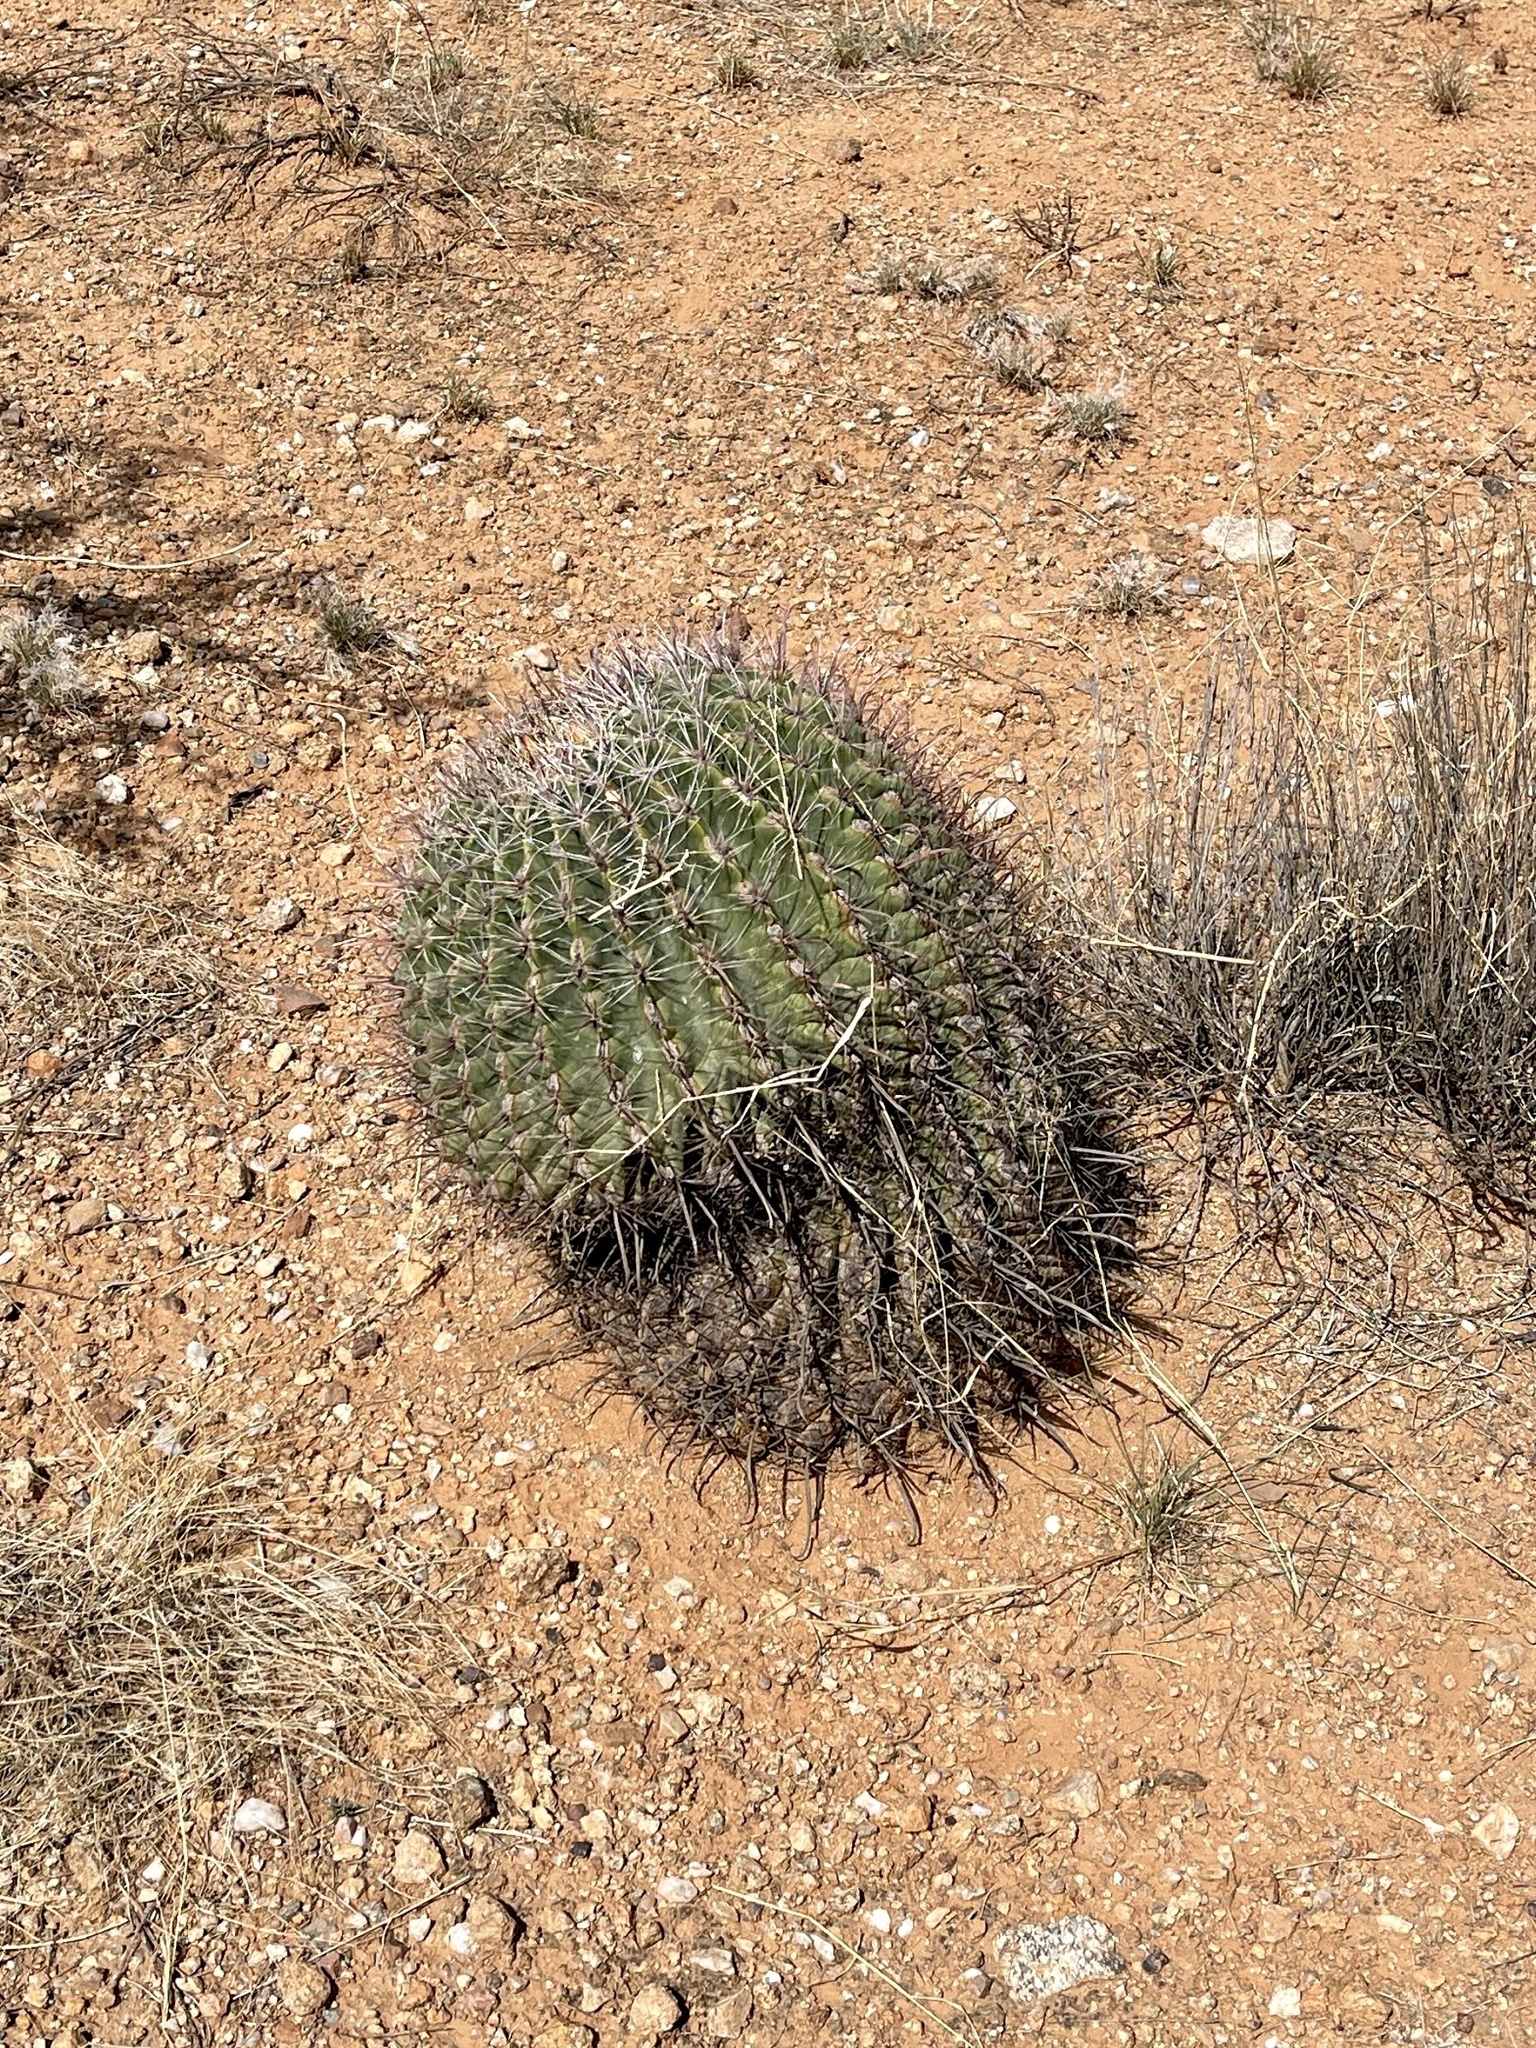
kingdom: Plantae
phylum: Tracheophyta
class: Magnoliopsida
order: Caryophyllales
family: Cactaceae
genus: Ferocactus
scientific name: Ferocactus wislizeni
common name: Candy barrel cactus
